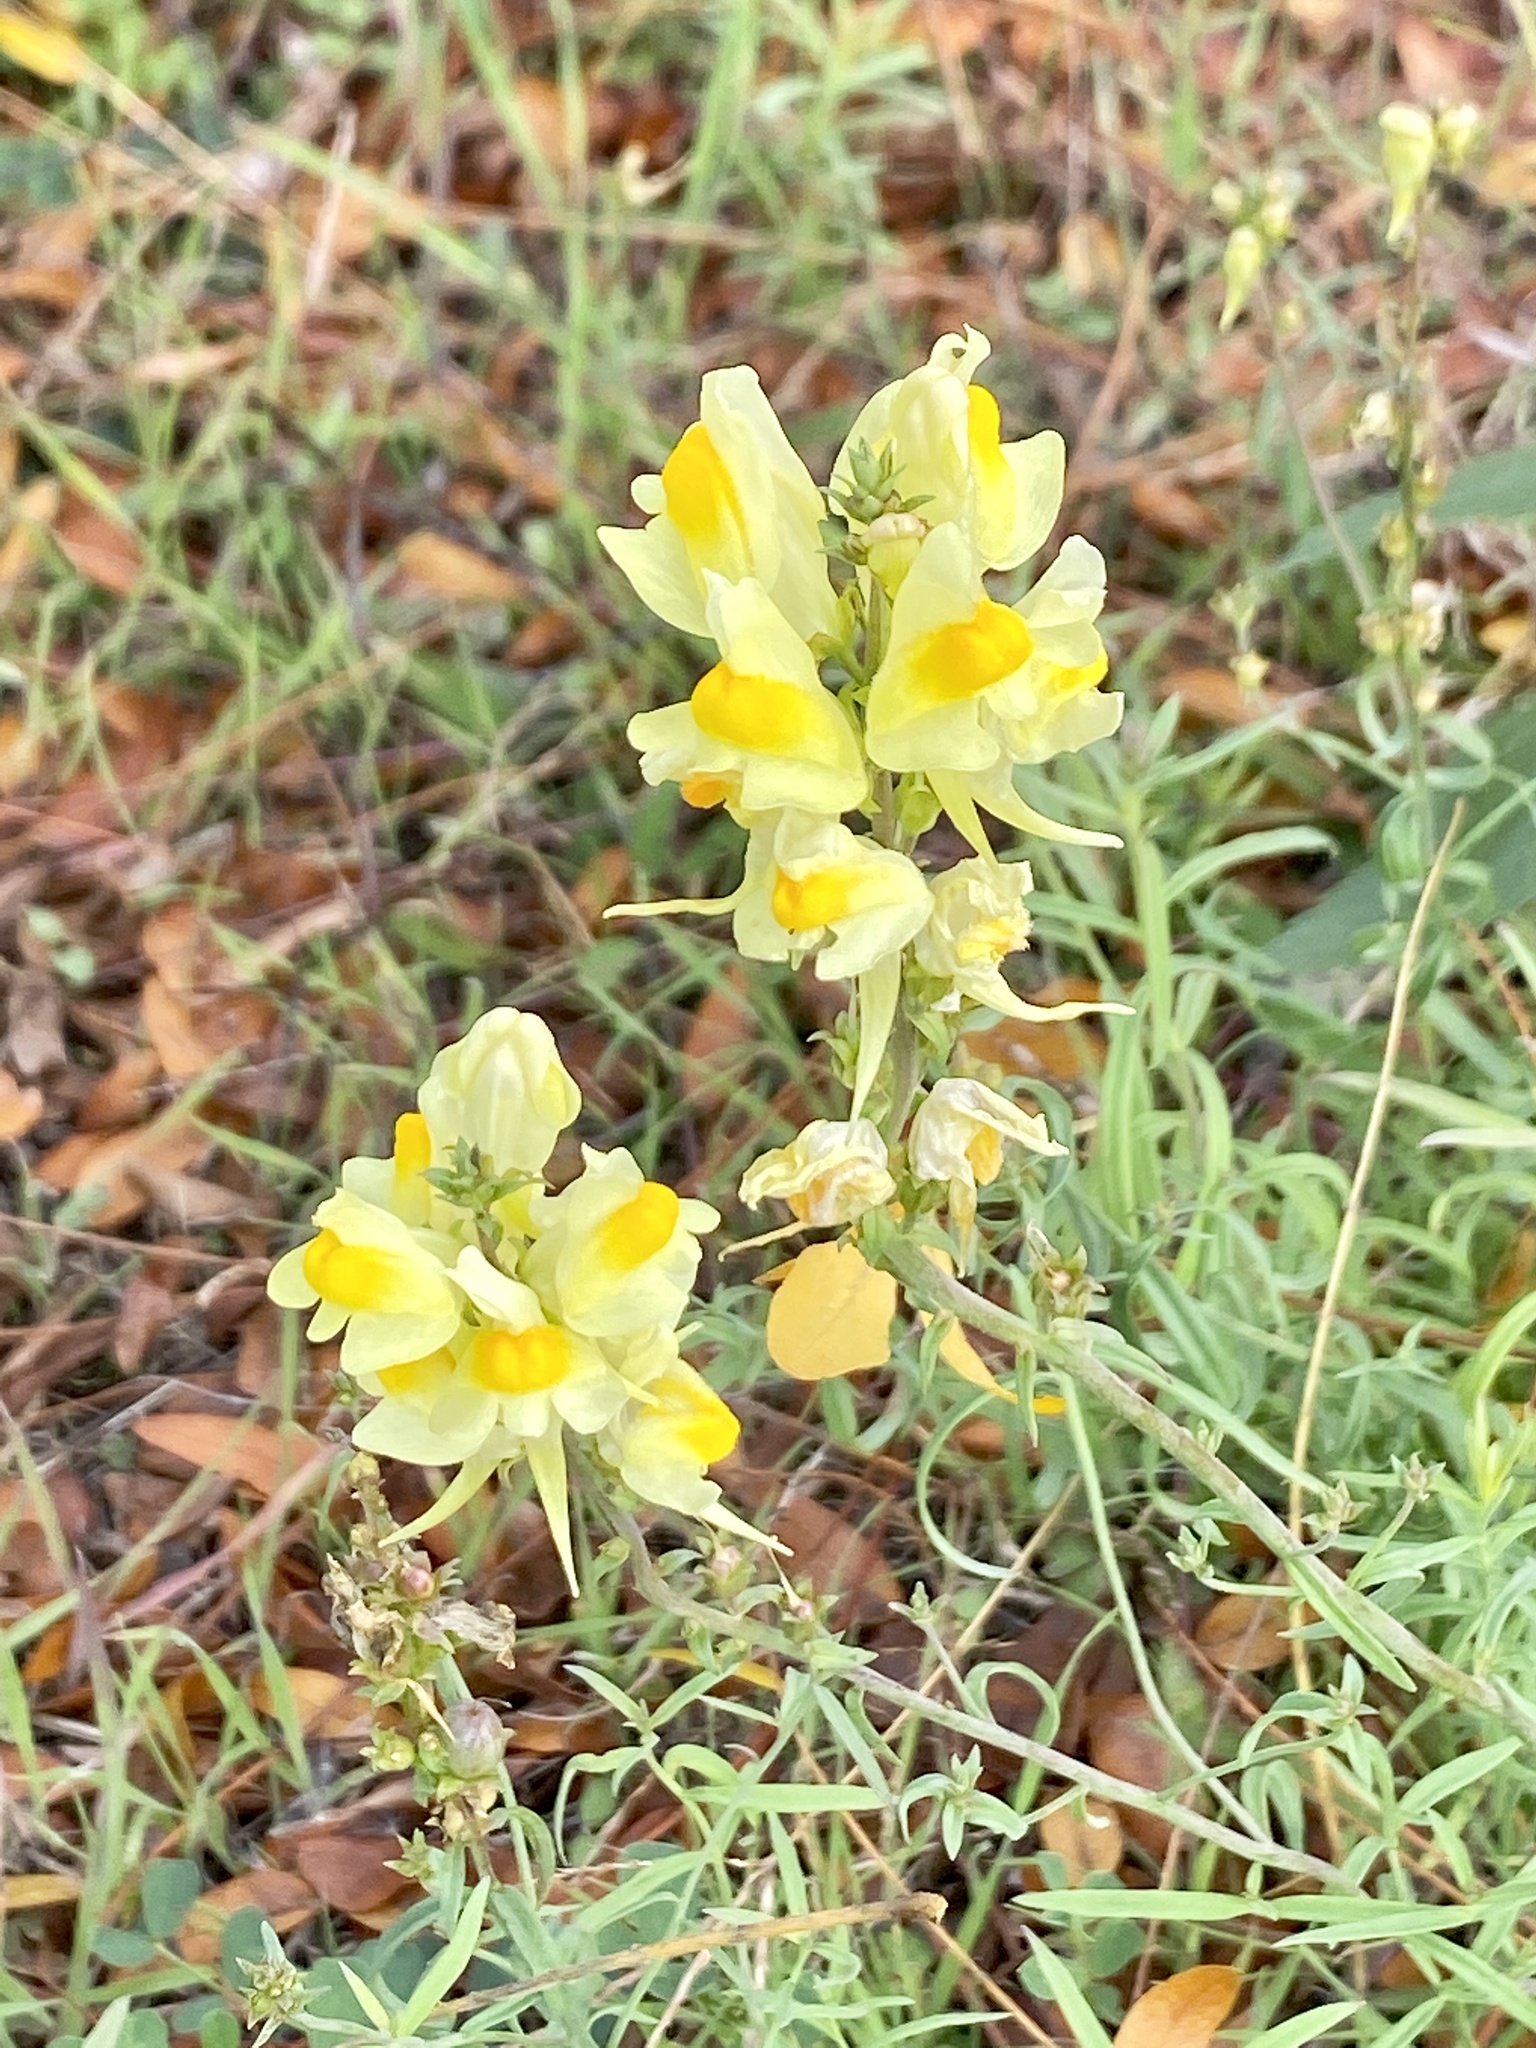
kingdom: Plantae
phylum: Tracheophyta
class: Magnoliopsida
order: Lamiales
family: Plantaginaceae
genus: Linaria
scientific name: Linaria vulgaris
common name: Butter and eggs
